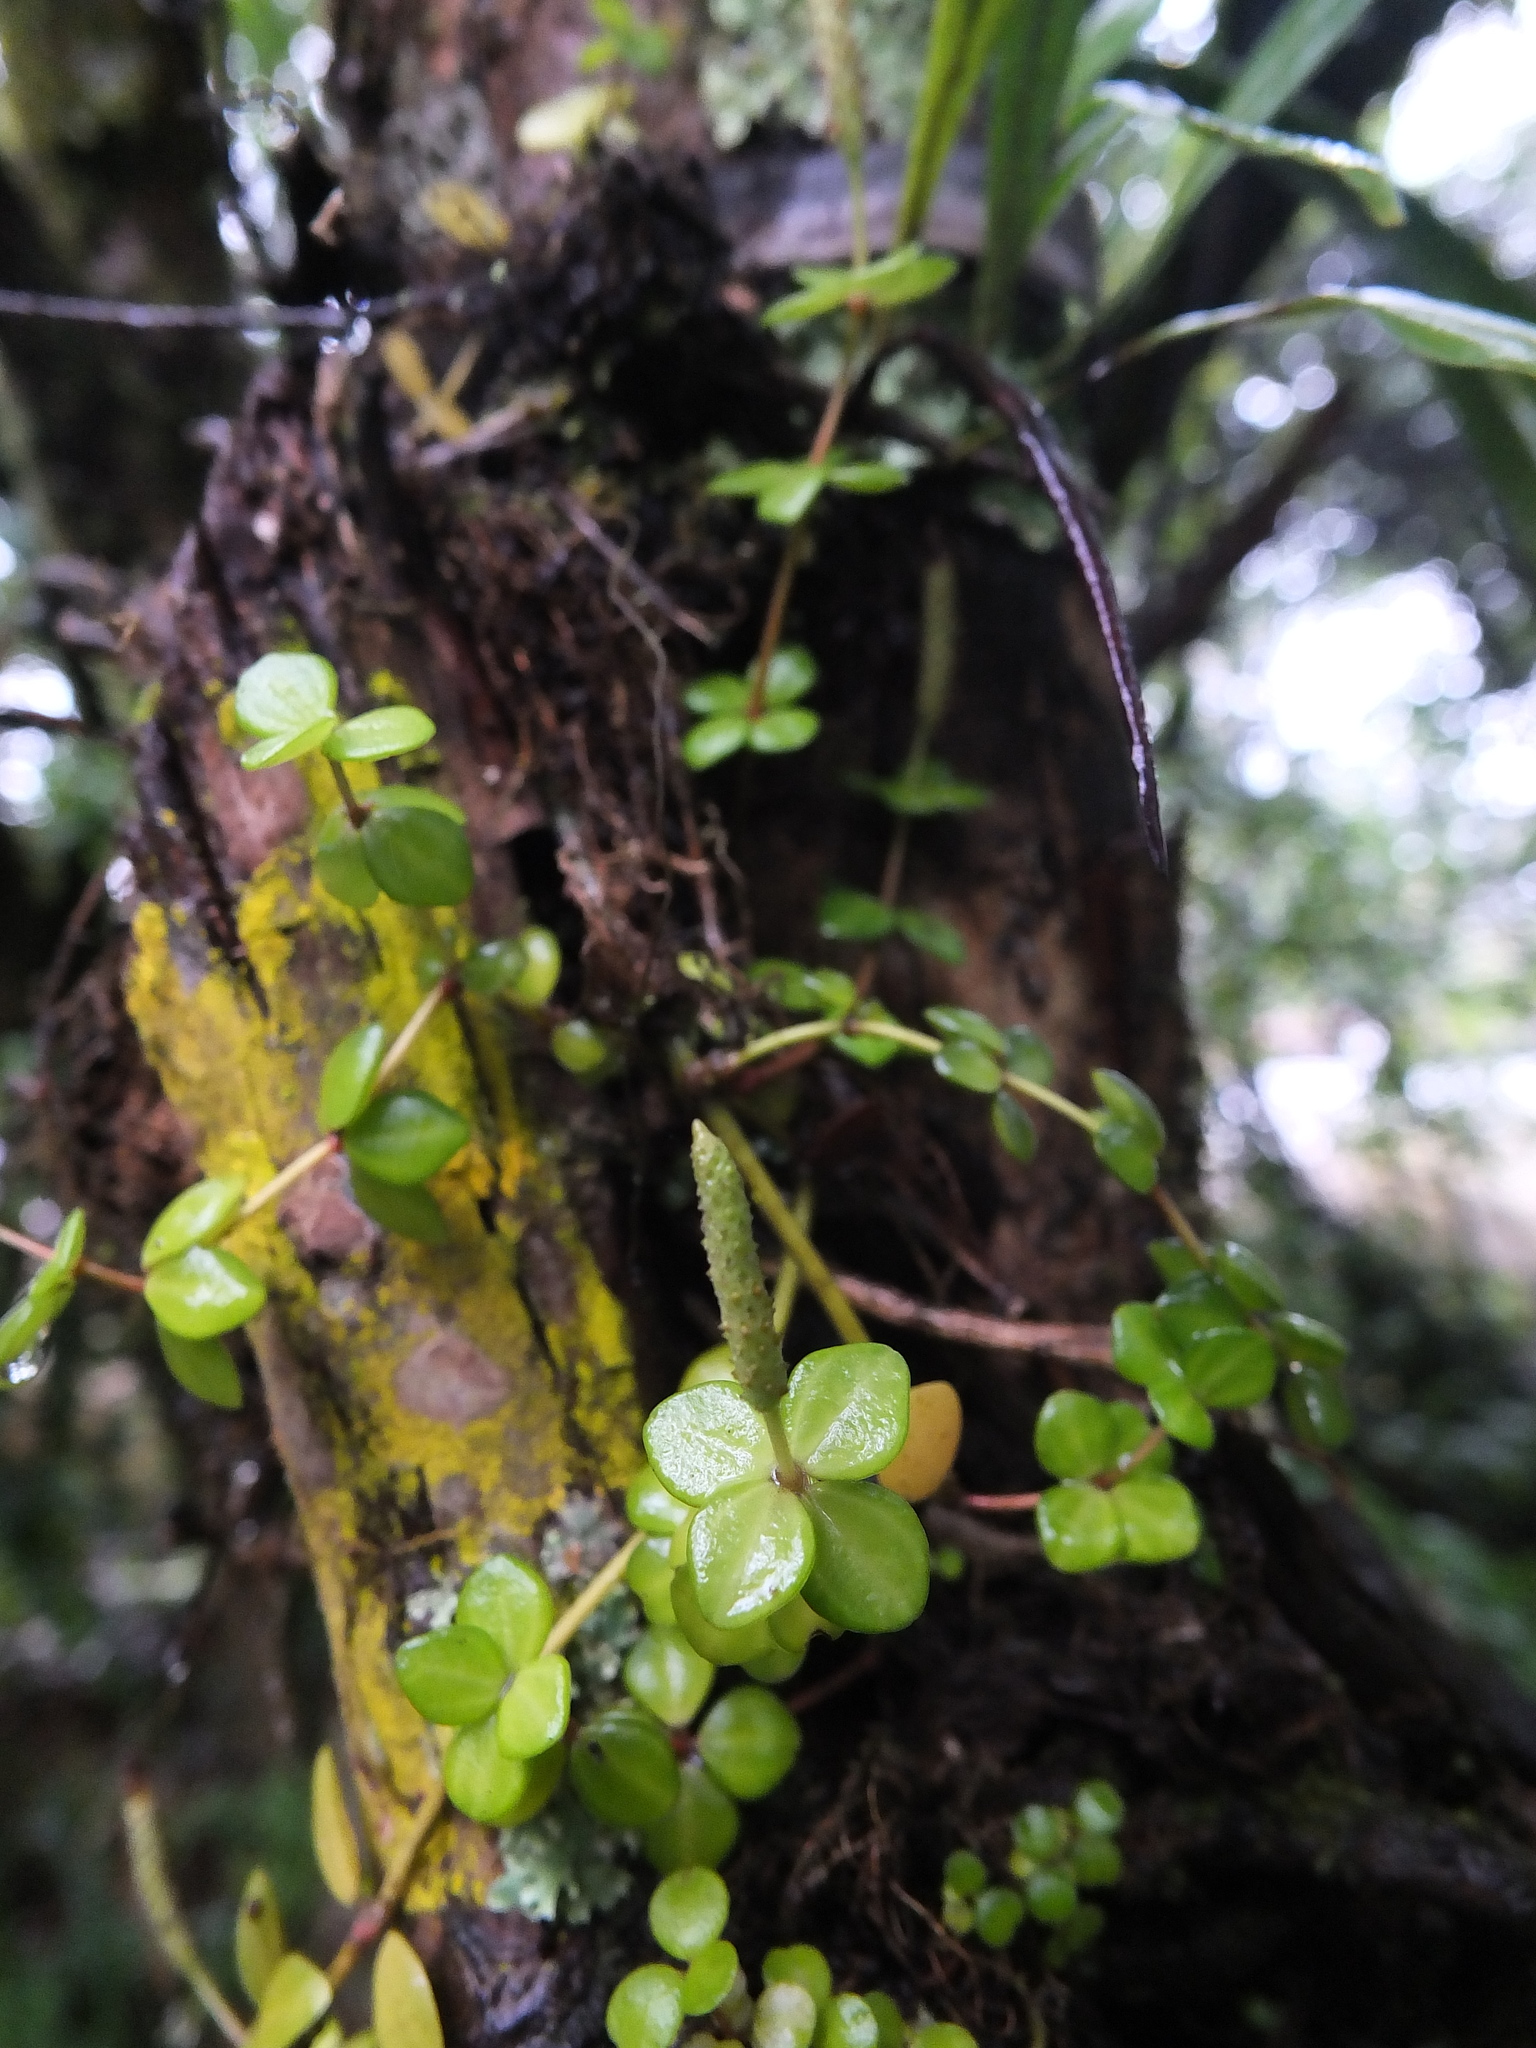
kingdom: Plantae
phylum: Tracheophyta
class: Magnoliopsida
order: Piperales
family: Piperaceae
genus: Peperomia
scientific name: Peperomia tetraphylla
